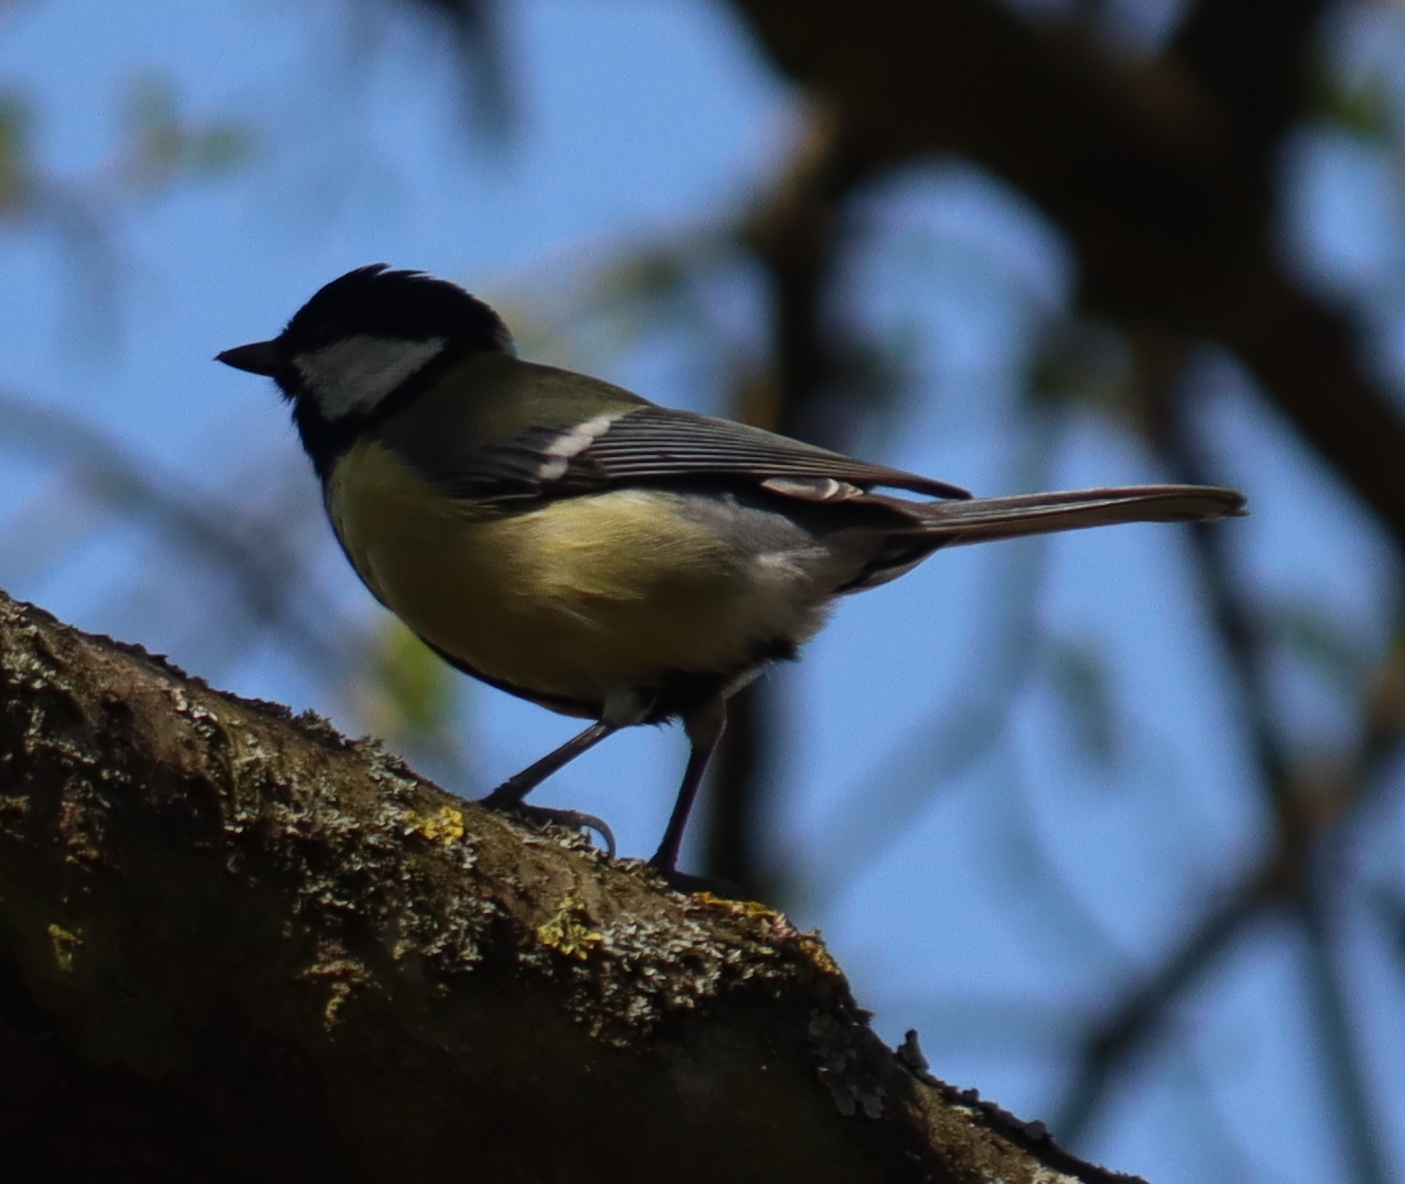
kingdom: Animalia
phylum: Chordata
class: Aves
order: Passeriformes
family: Paridae
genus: Parus
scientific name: Parus major
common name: Great tit
